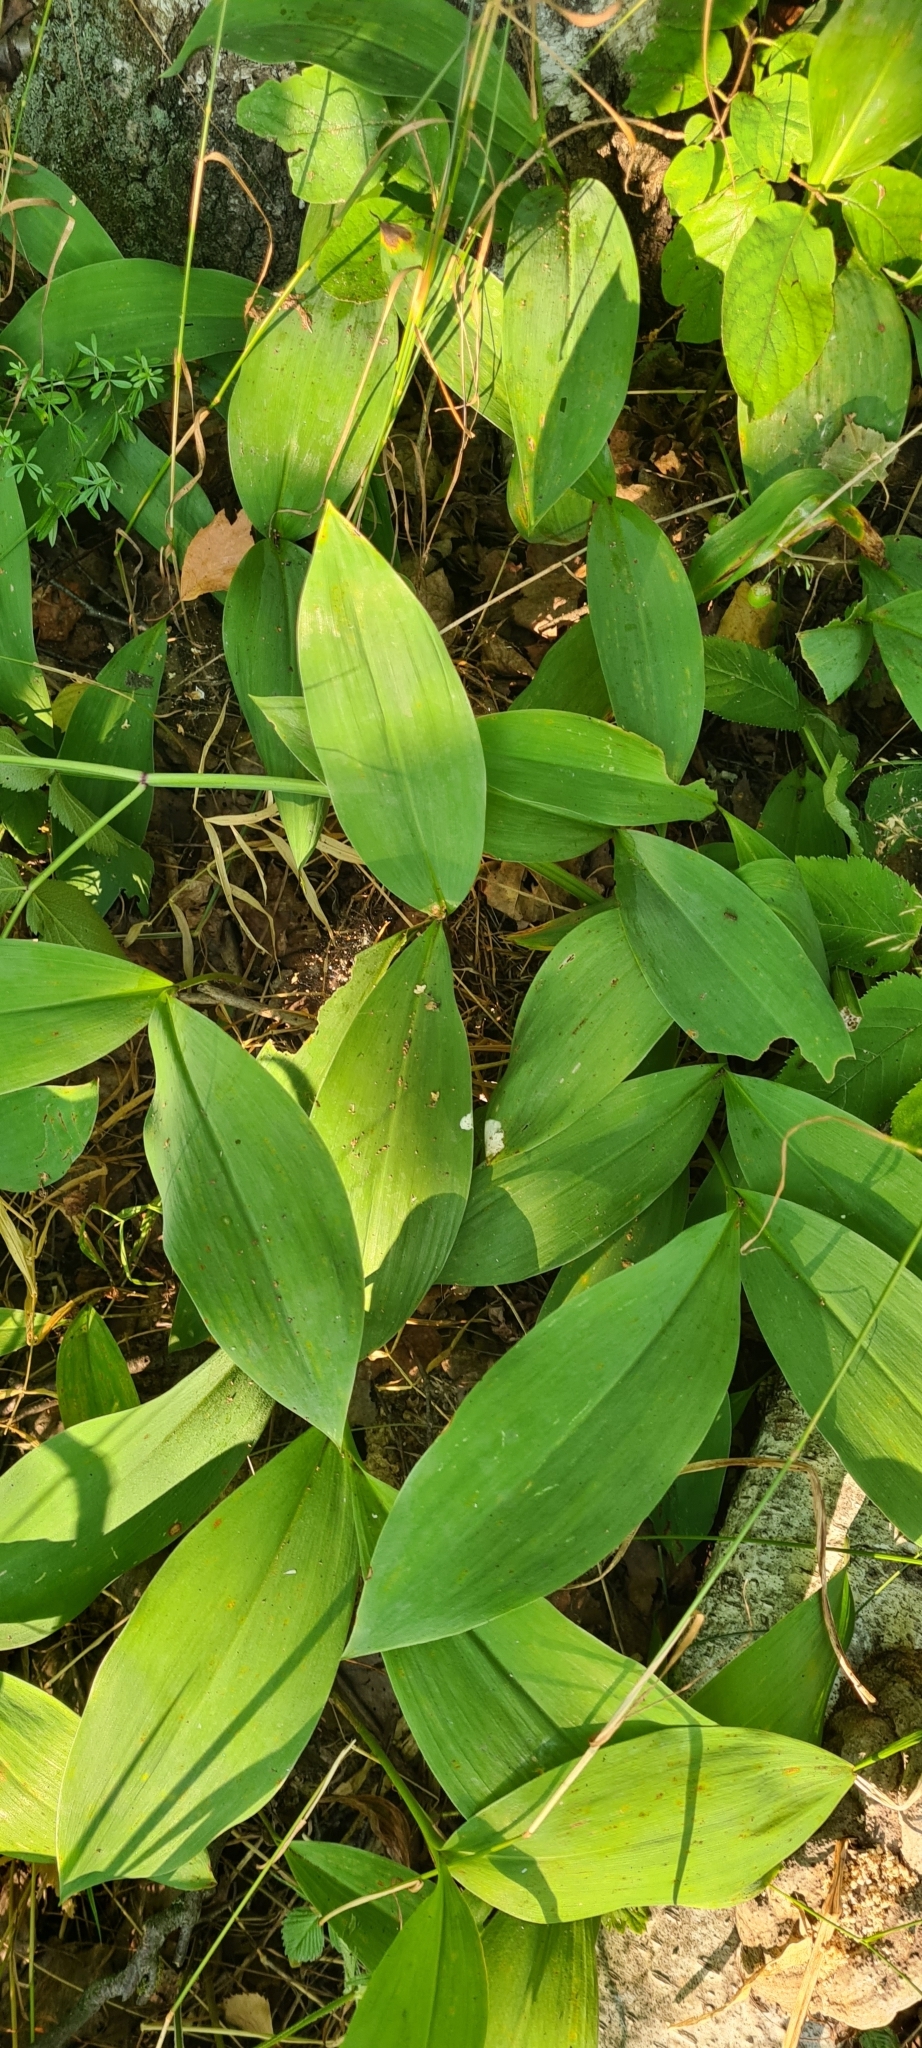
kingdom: Plantae
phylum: Tracheophyta
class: Liliopsida
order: Asparagales
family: Asparagaceae
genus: Convallaria
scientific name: Convallaria majalis
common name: Lily-of-the-valley
